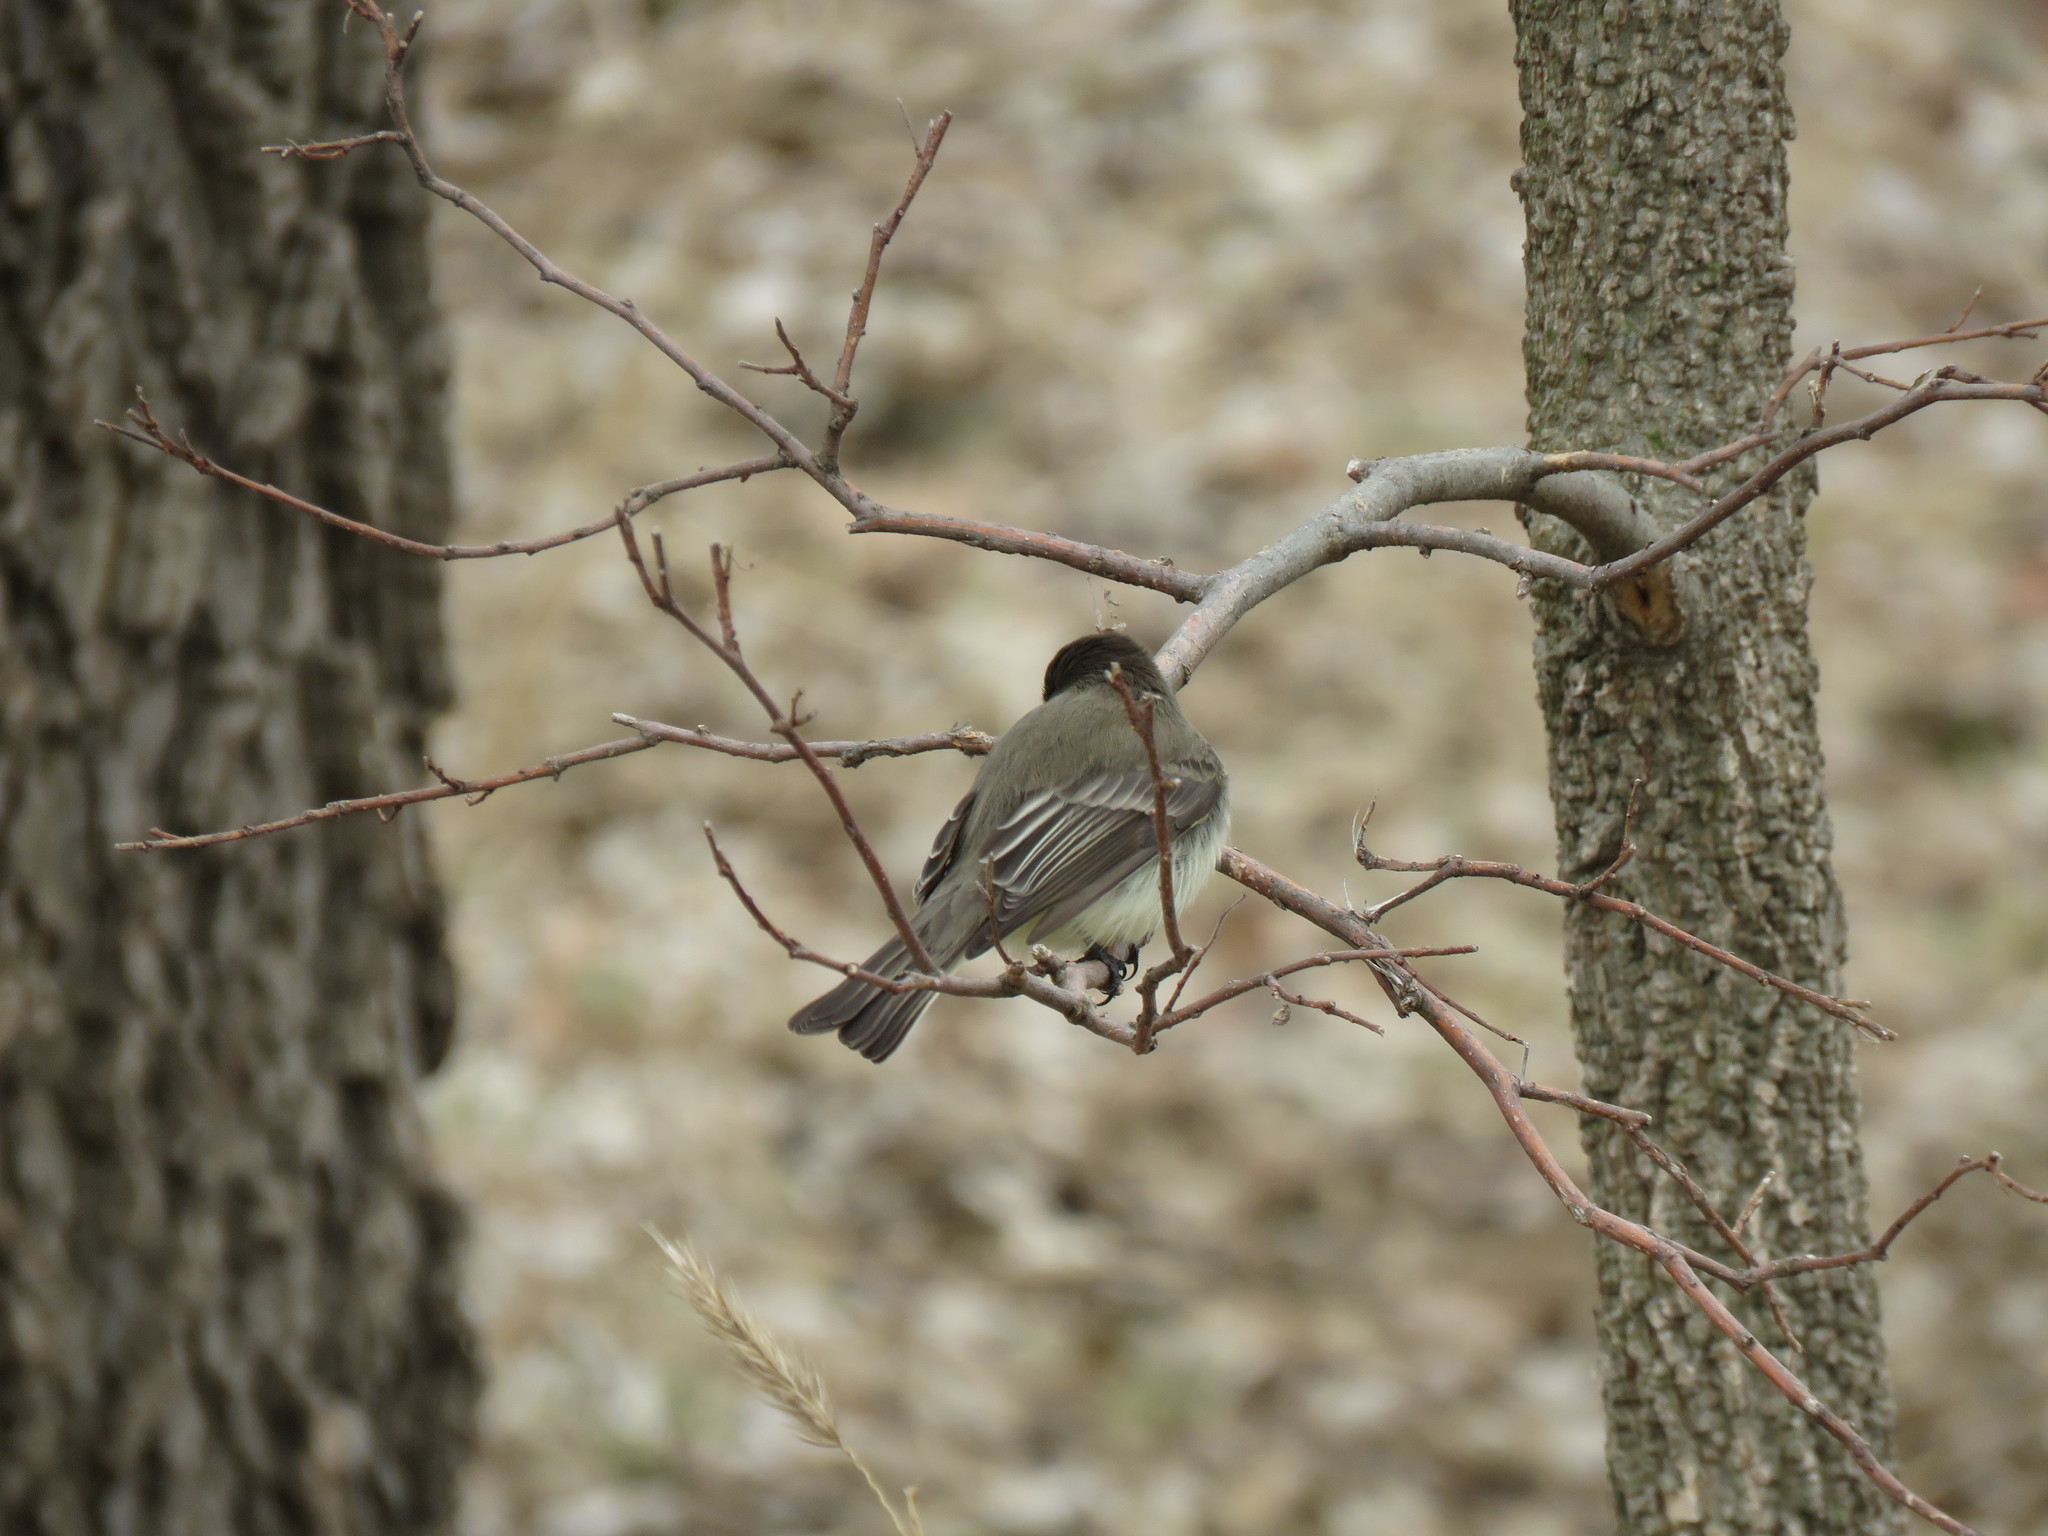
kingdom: Animalia
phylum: Chordata
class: Aves
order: Passeriformes
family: Tyrannidae
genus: Sayornis
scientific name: Sayornis phoebe
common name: Eastern phoebe
